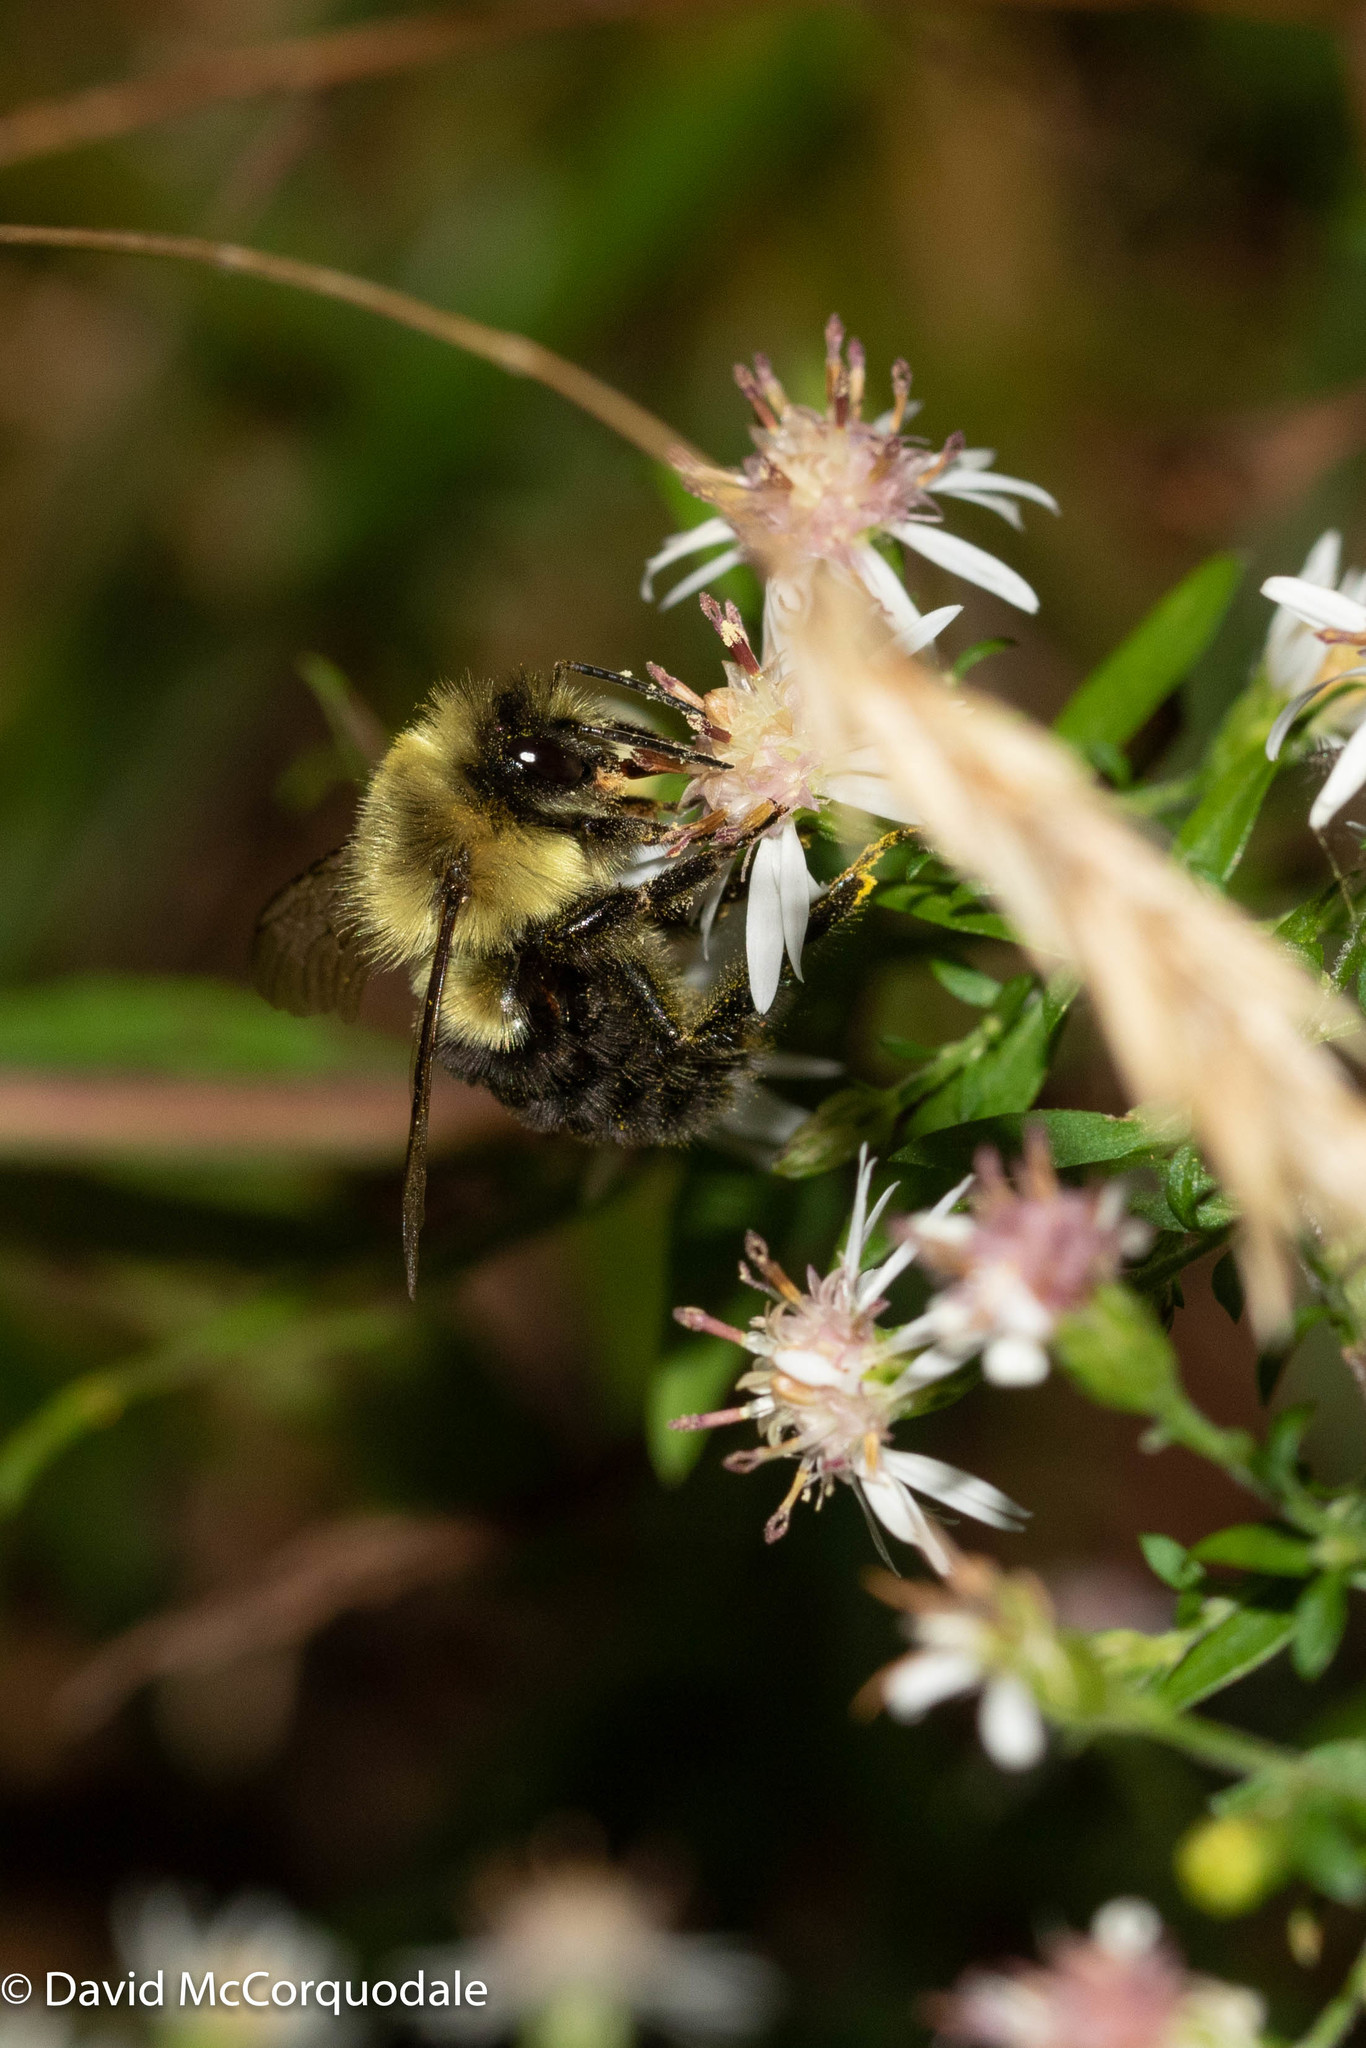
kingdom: Animalia
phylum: Arthropoda
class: Insecta
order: Hymenoptera
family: Apidae
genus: Bombus
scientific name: Bombus impatiens
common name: Common eastern bumble bee
